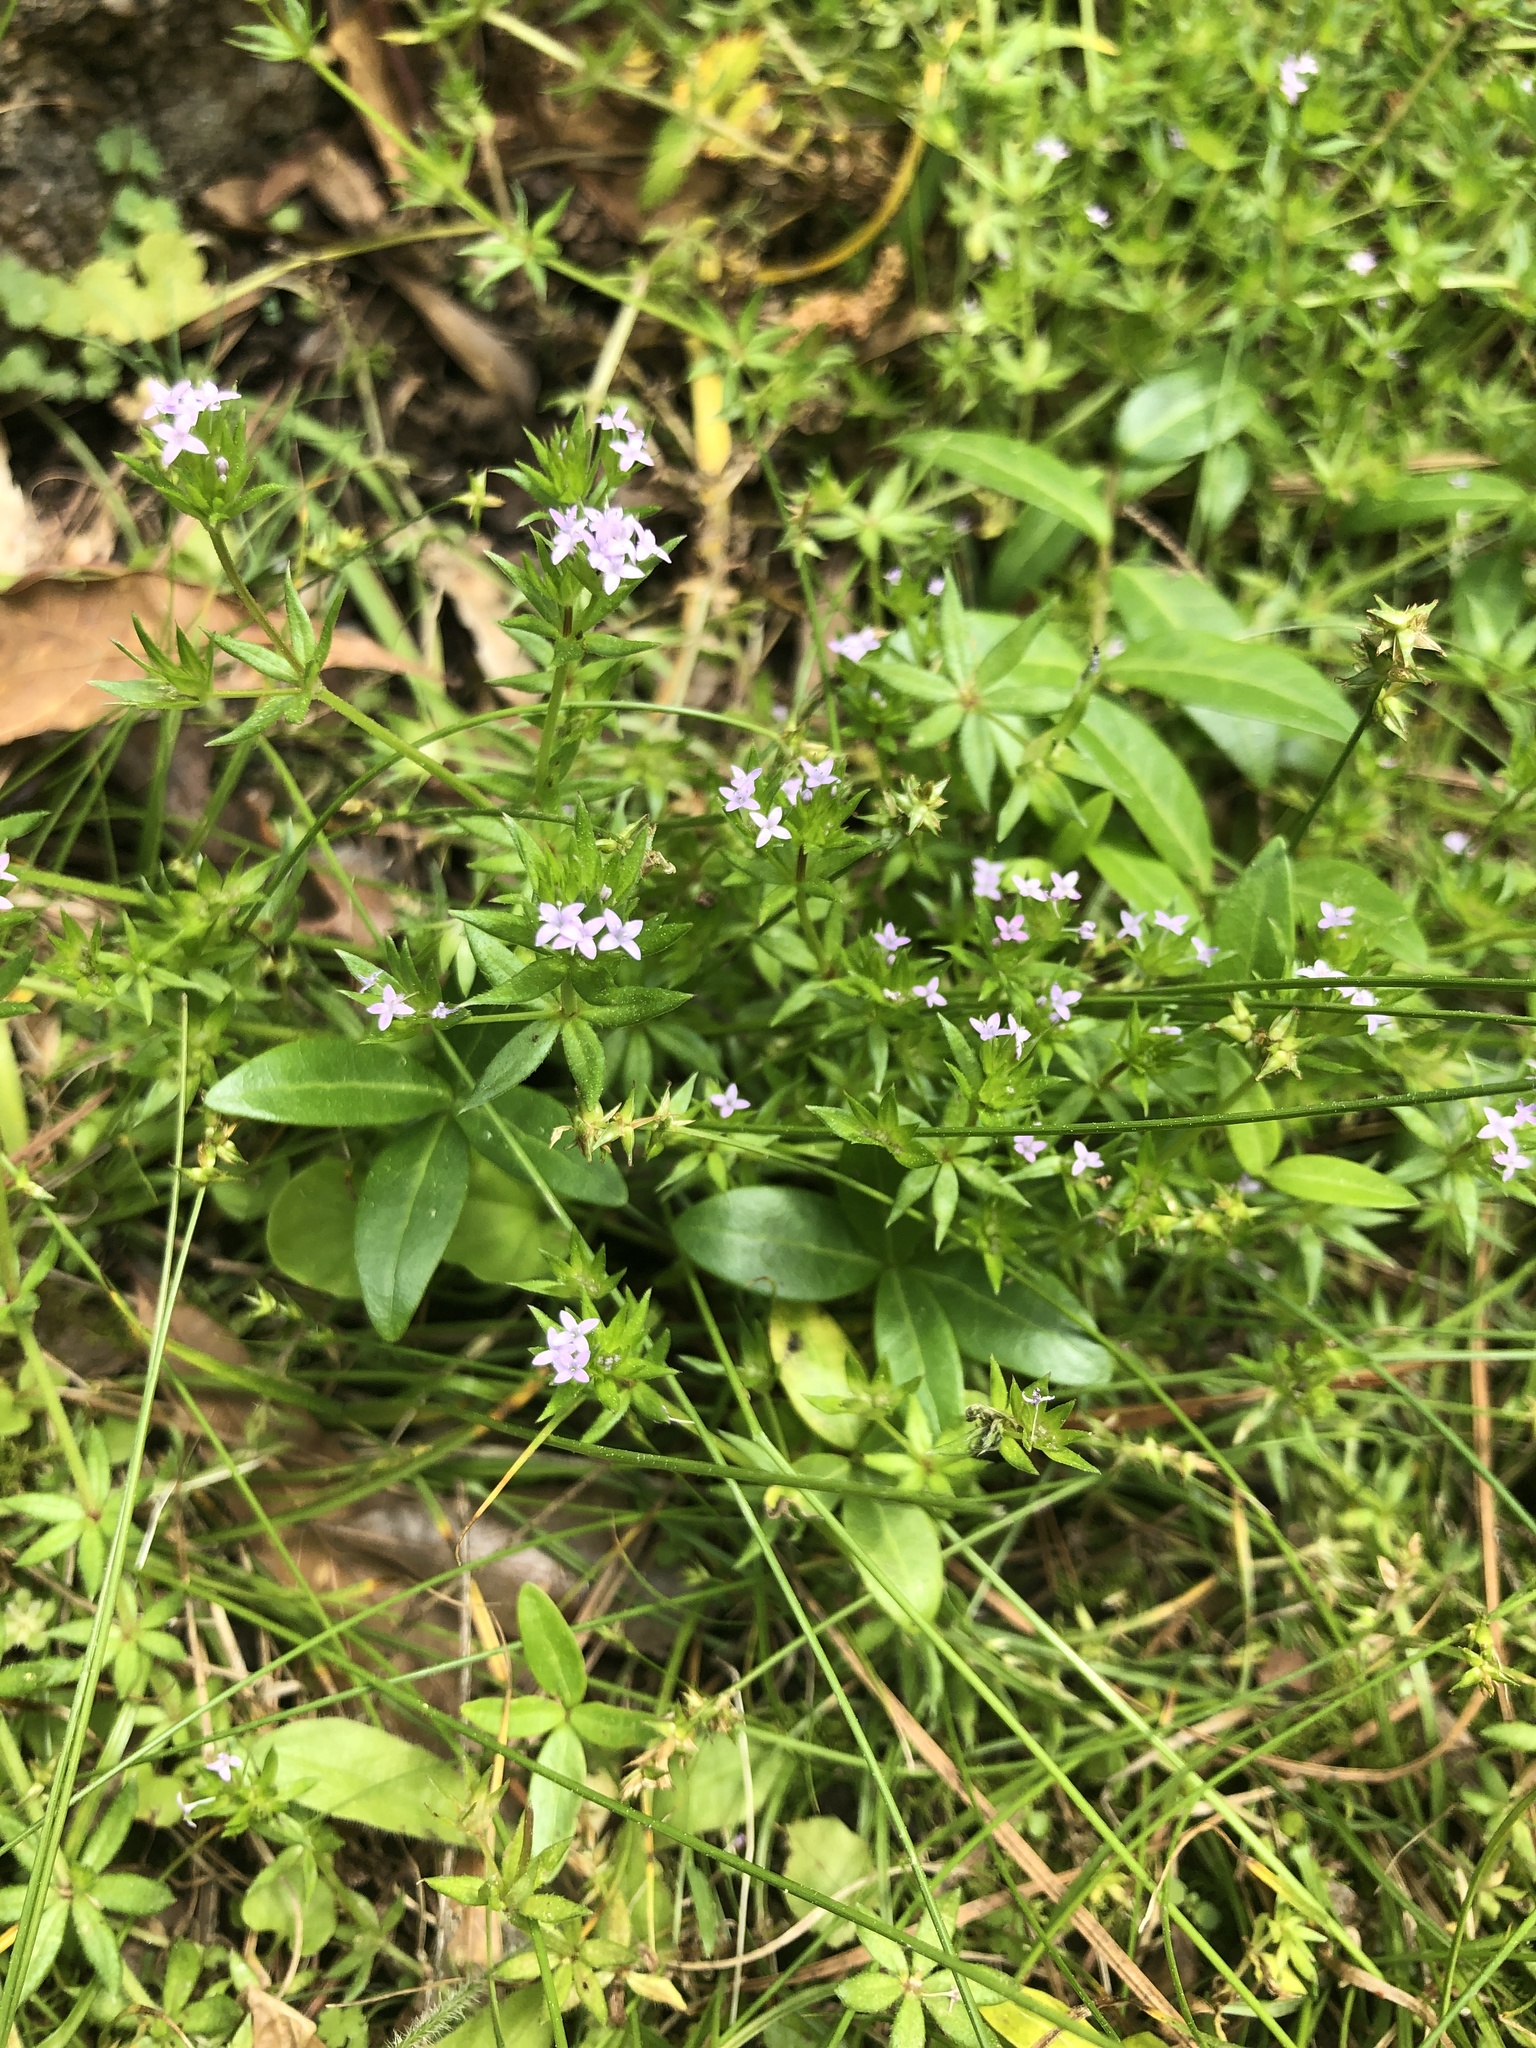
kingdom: Plantae
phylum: Tracheophyta
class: Magnoliopsida
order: Gentianales
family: Rubiaceae
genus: Sherardia
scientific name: Sherardia arvensis
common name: Field madder
